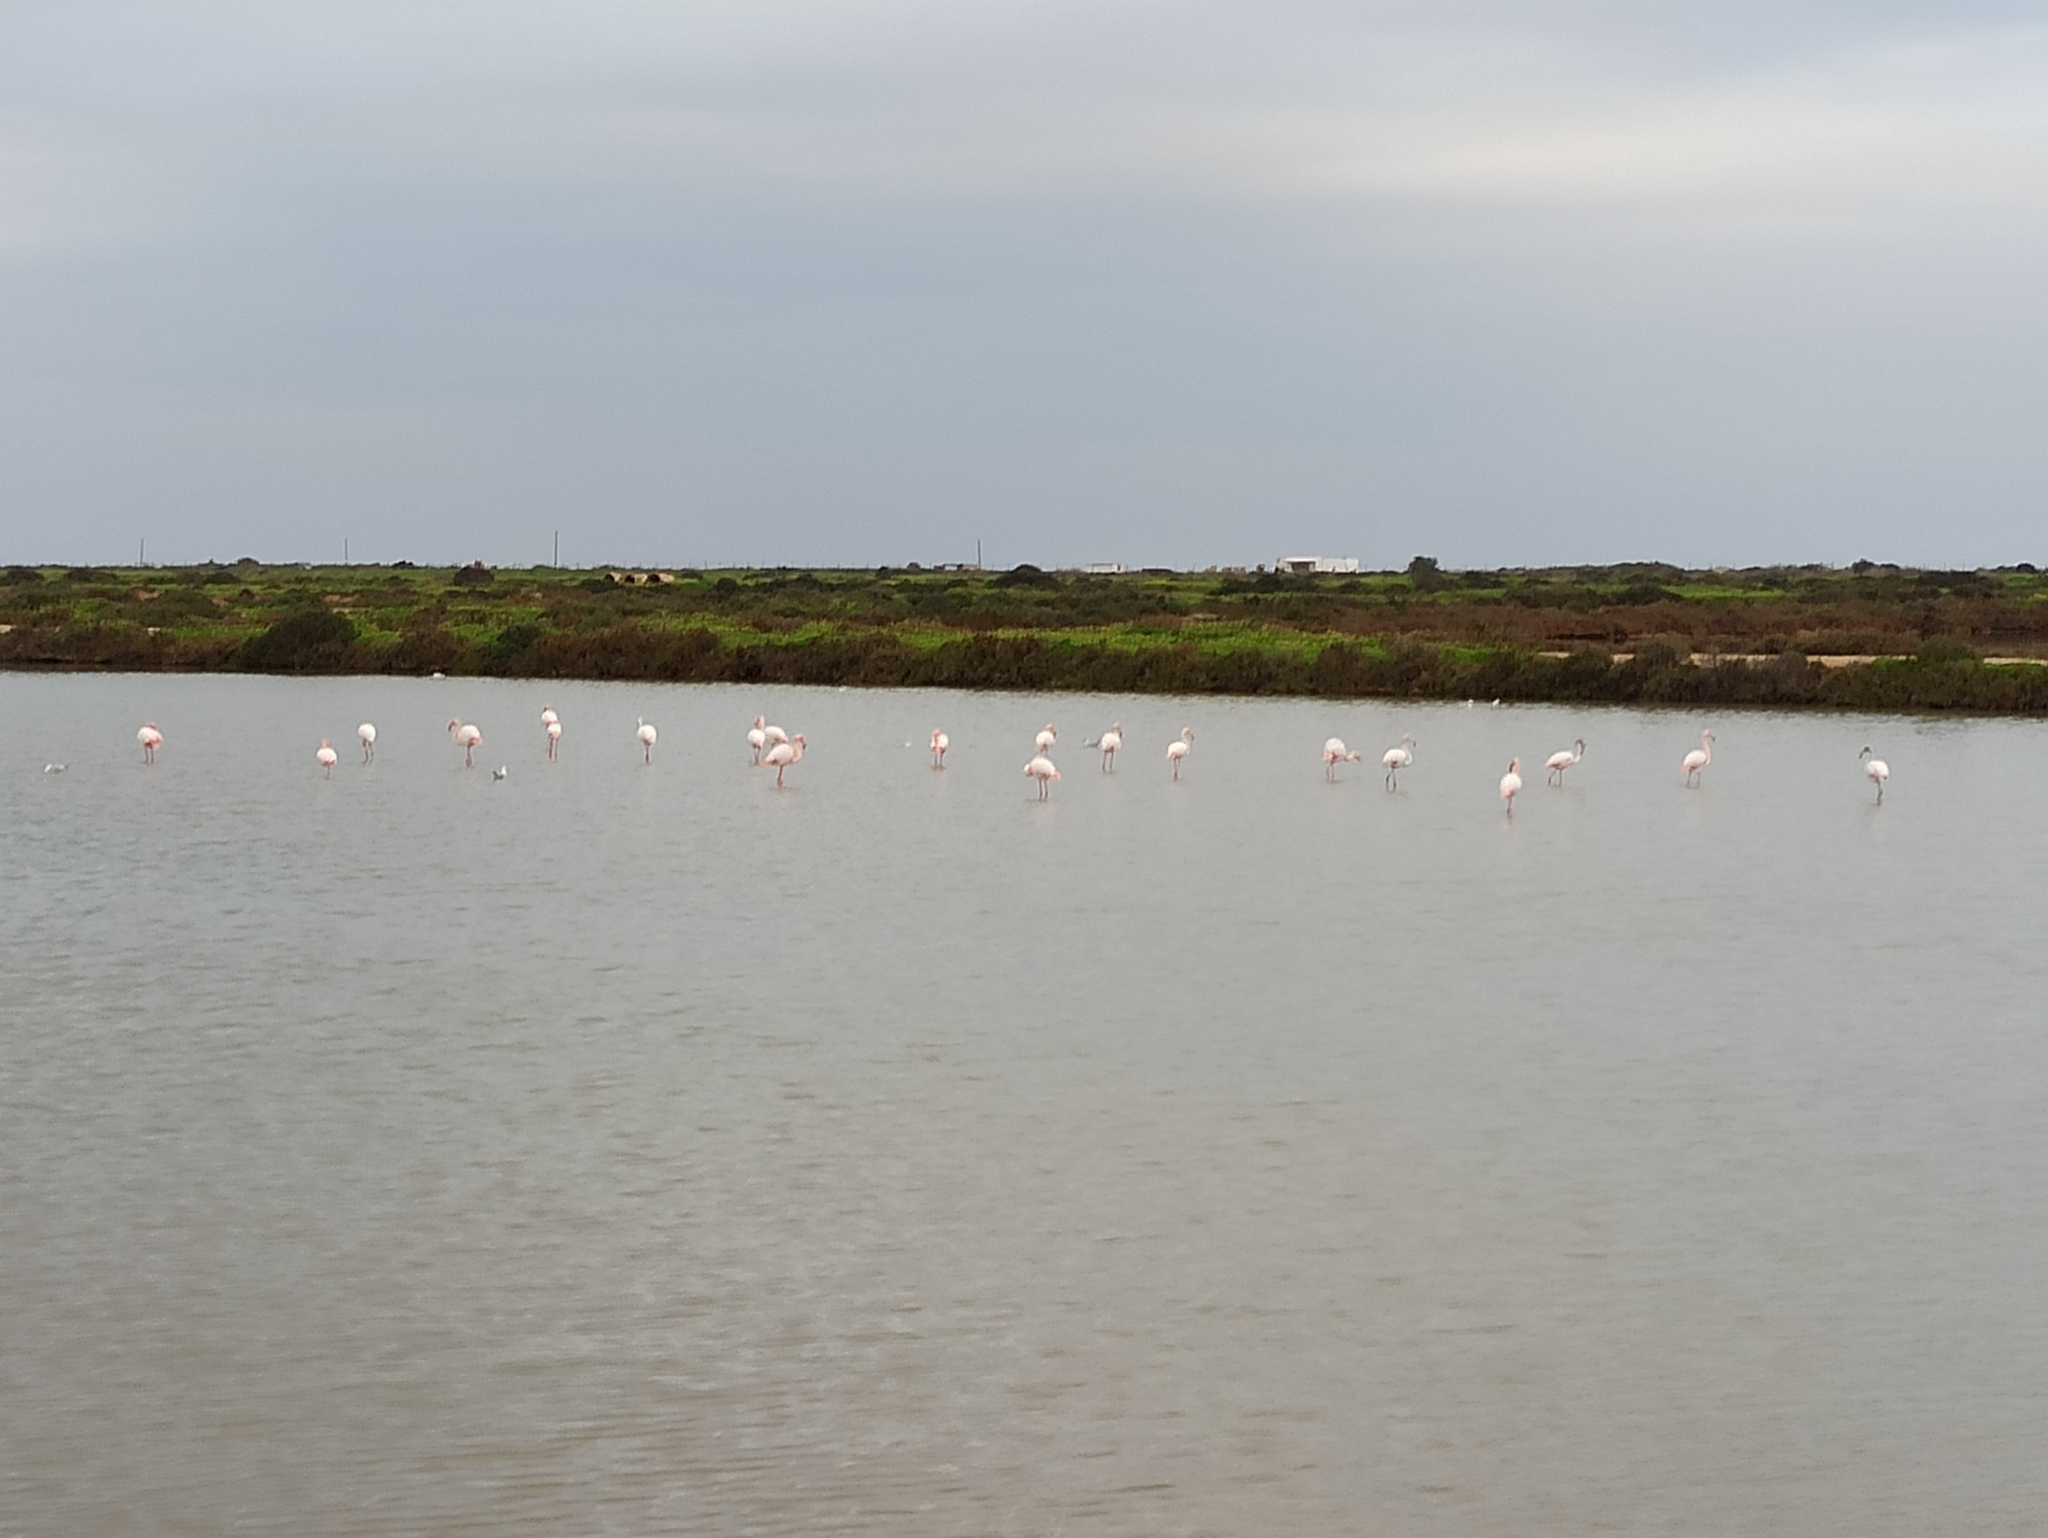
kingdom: Animalia
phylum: Chordata
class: Aves
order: Phoenicopteriformes
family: Phoenicopteridae
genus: Phoenicopterus
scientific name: Phoenicopterus roseus
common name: Greater flamingo
